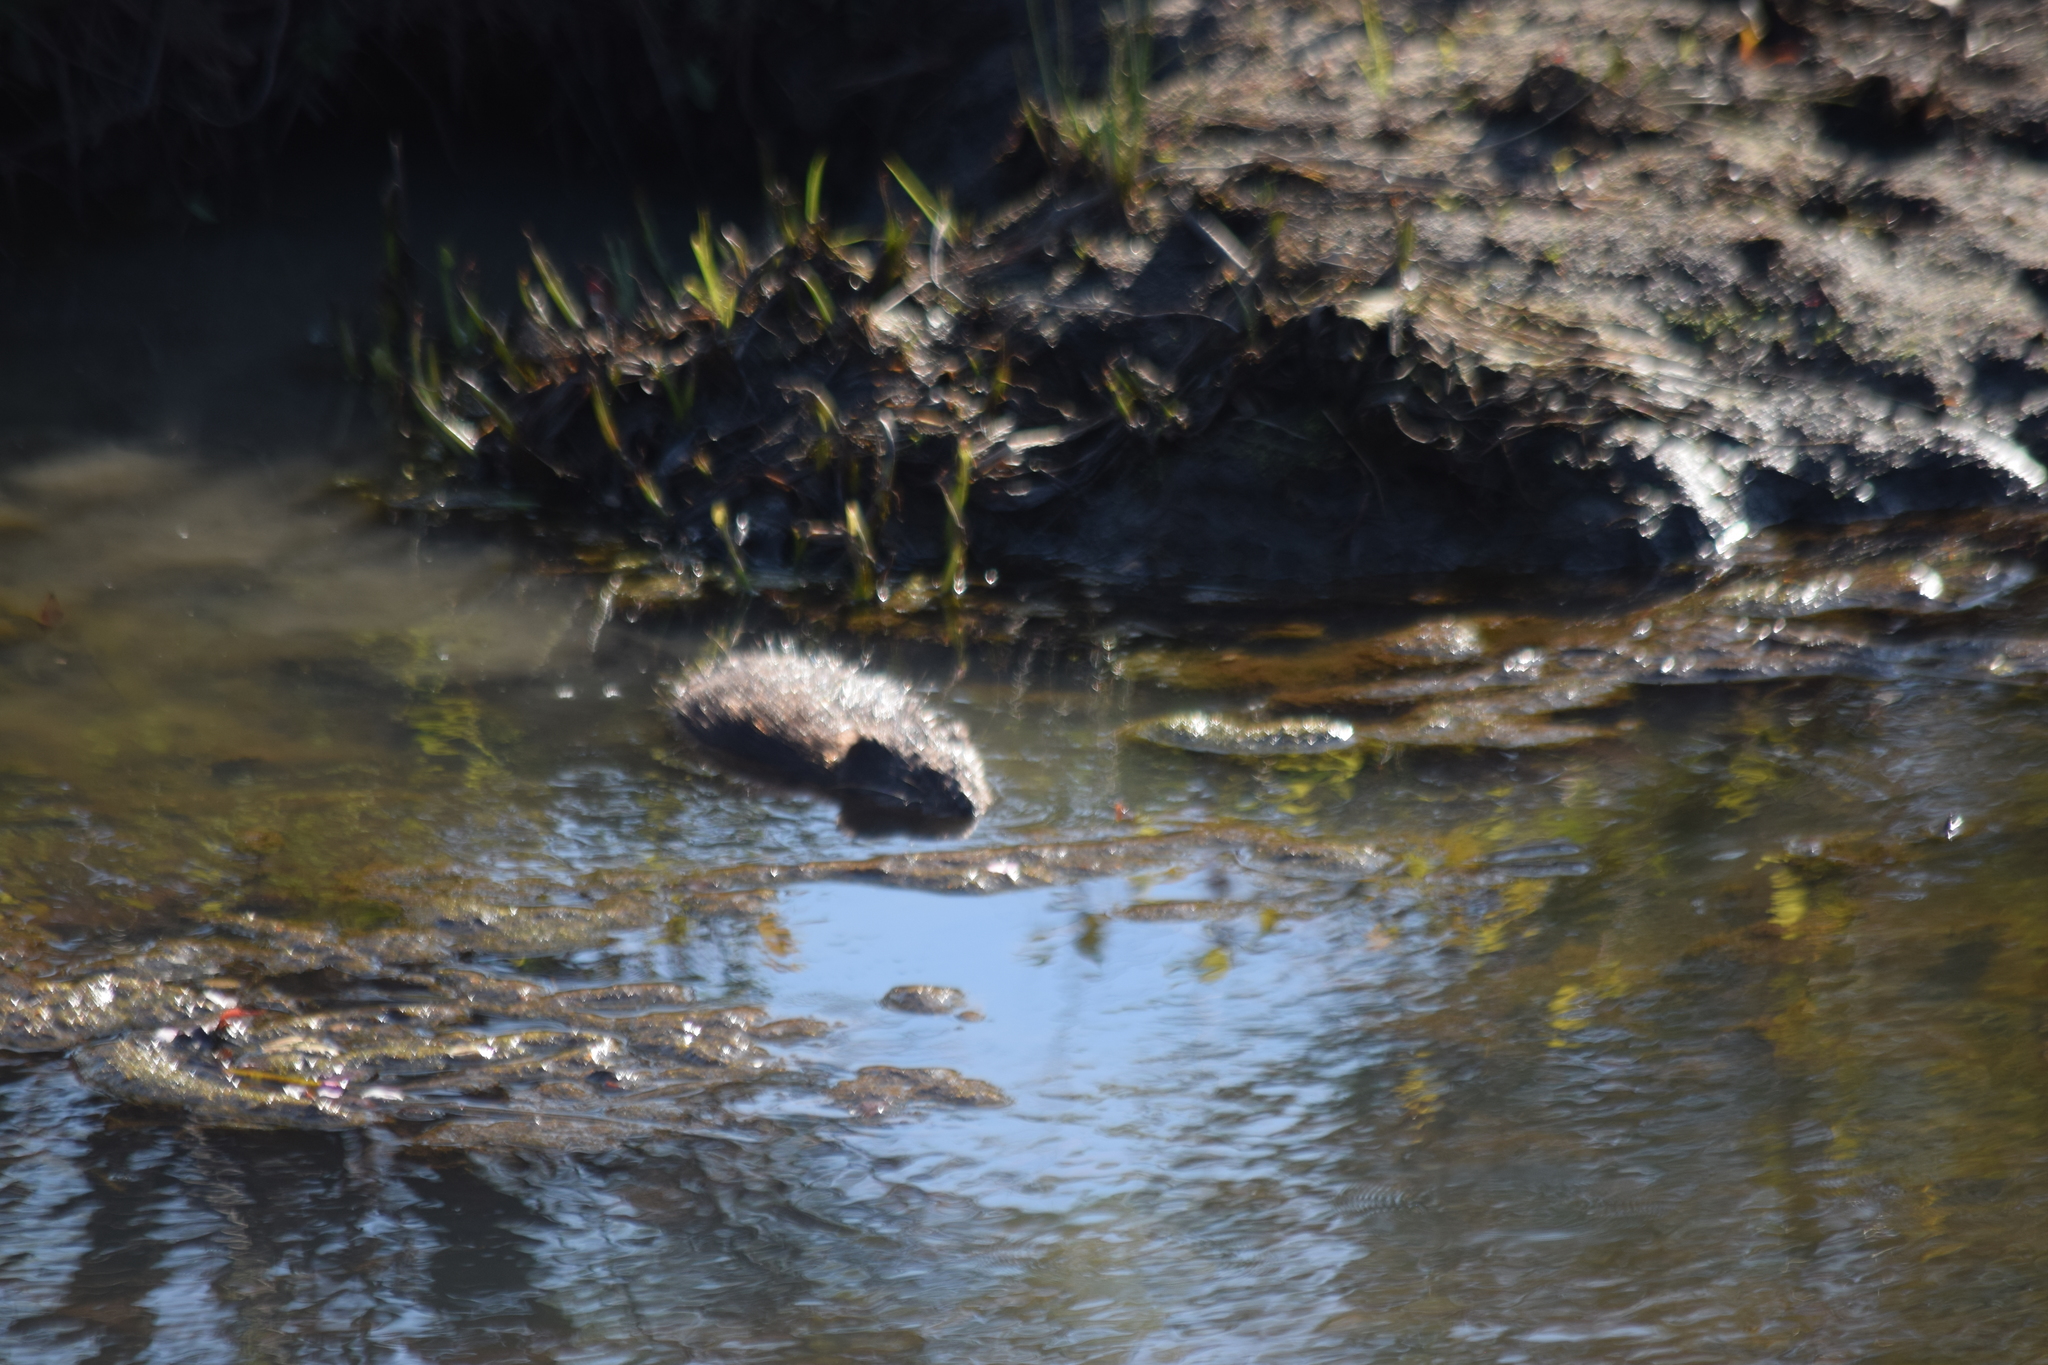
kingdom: Animalia
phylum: Chordata
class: Mammalia
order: Rodentia
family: Cricetidae
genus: Ondatra
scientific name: Ondatra zibethicus
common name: Muskrat
